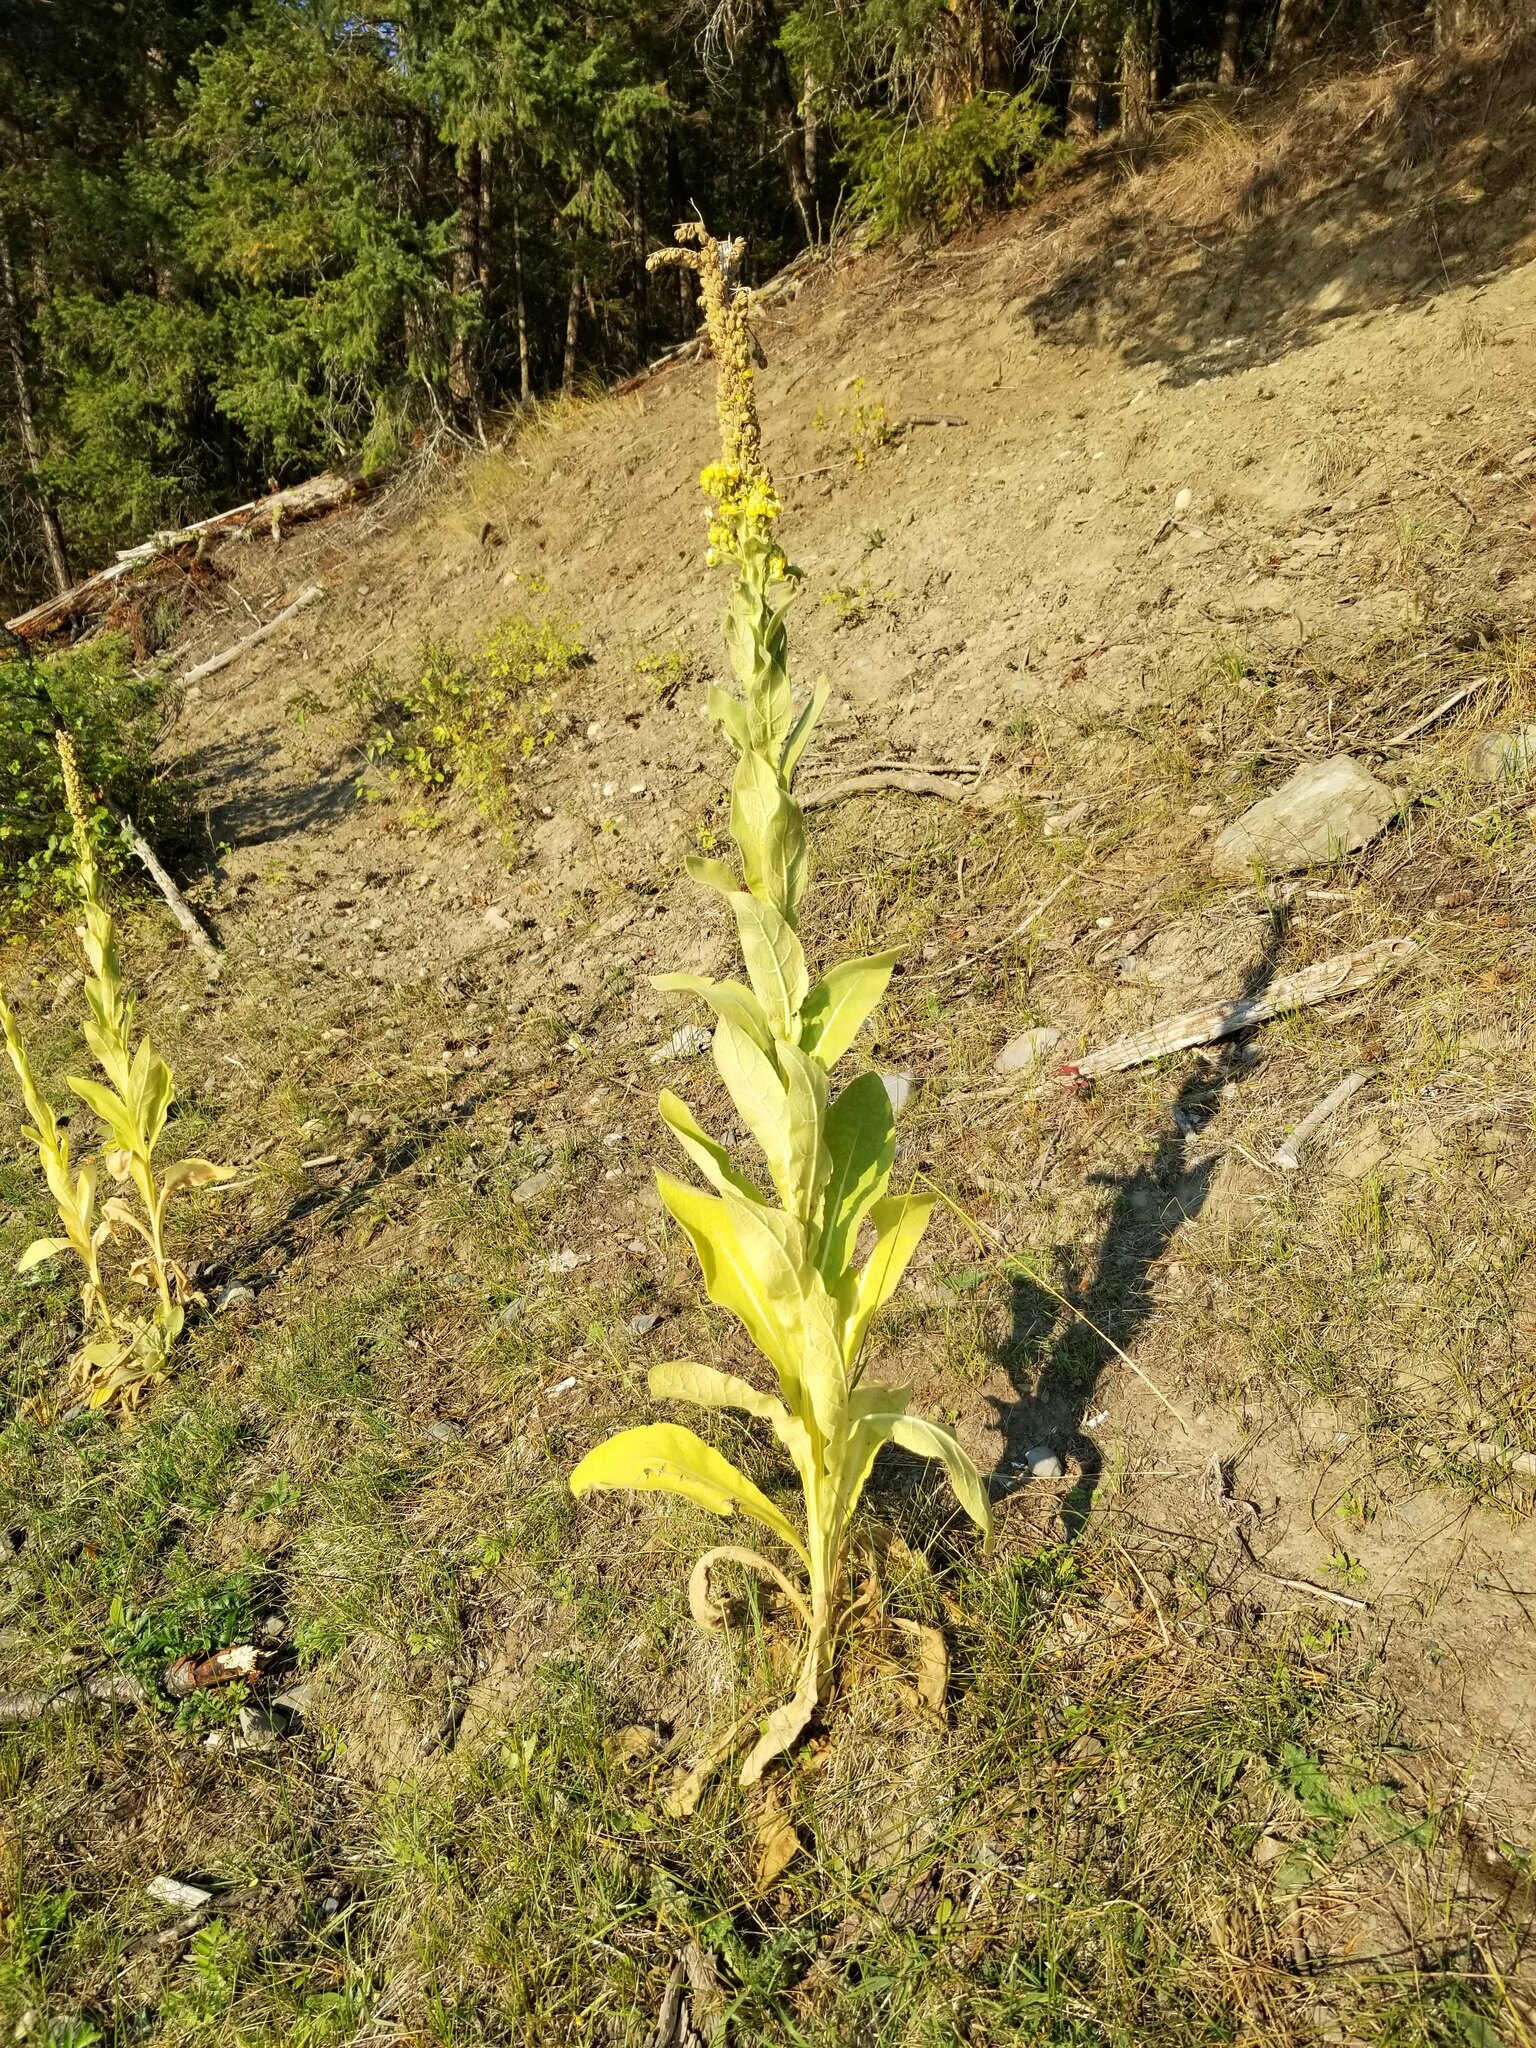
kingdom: Plantae
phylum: Tracheophyta
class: Magnoliopsida
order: Lamiales
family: Scrophulariaceae
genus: Verbascum
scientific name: Verbascum thapsus
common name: Common mullein
